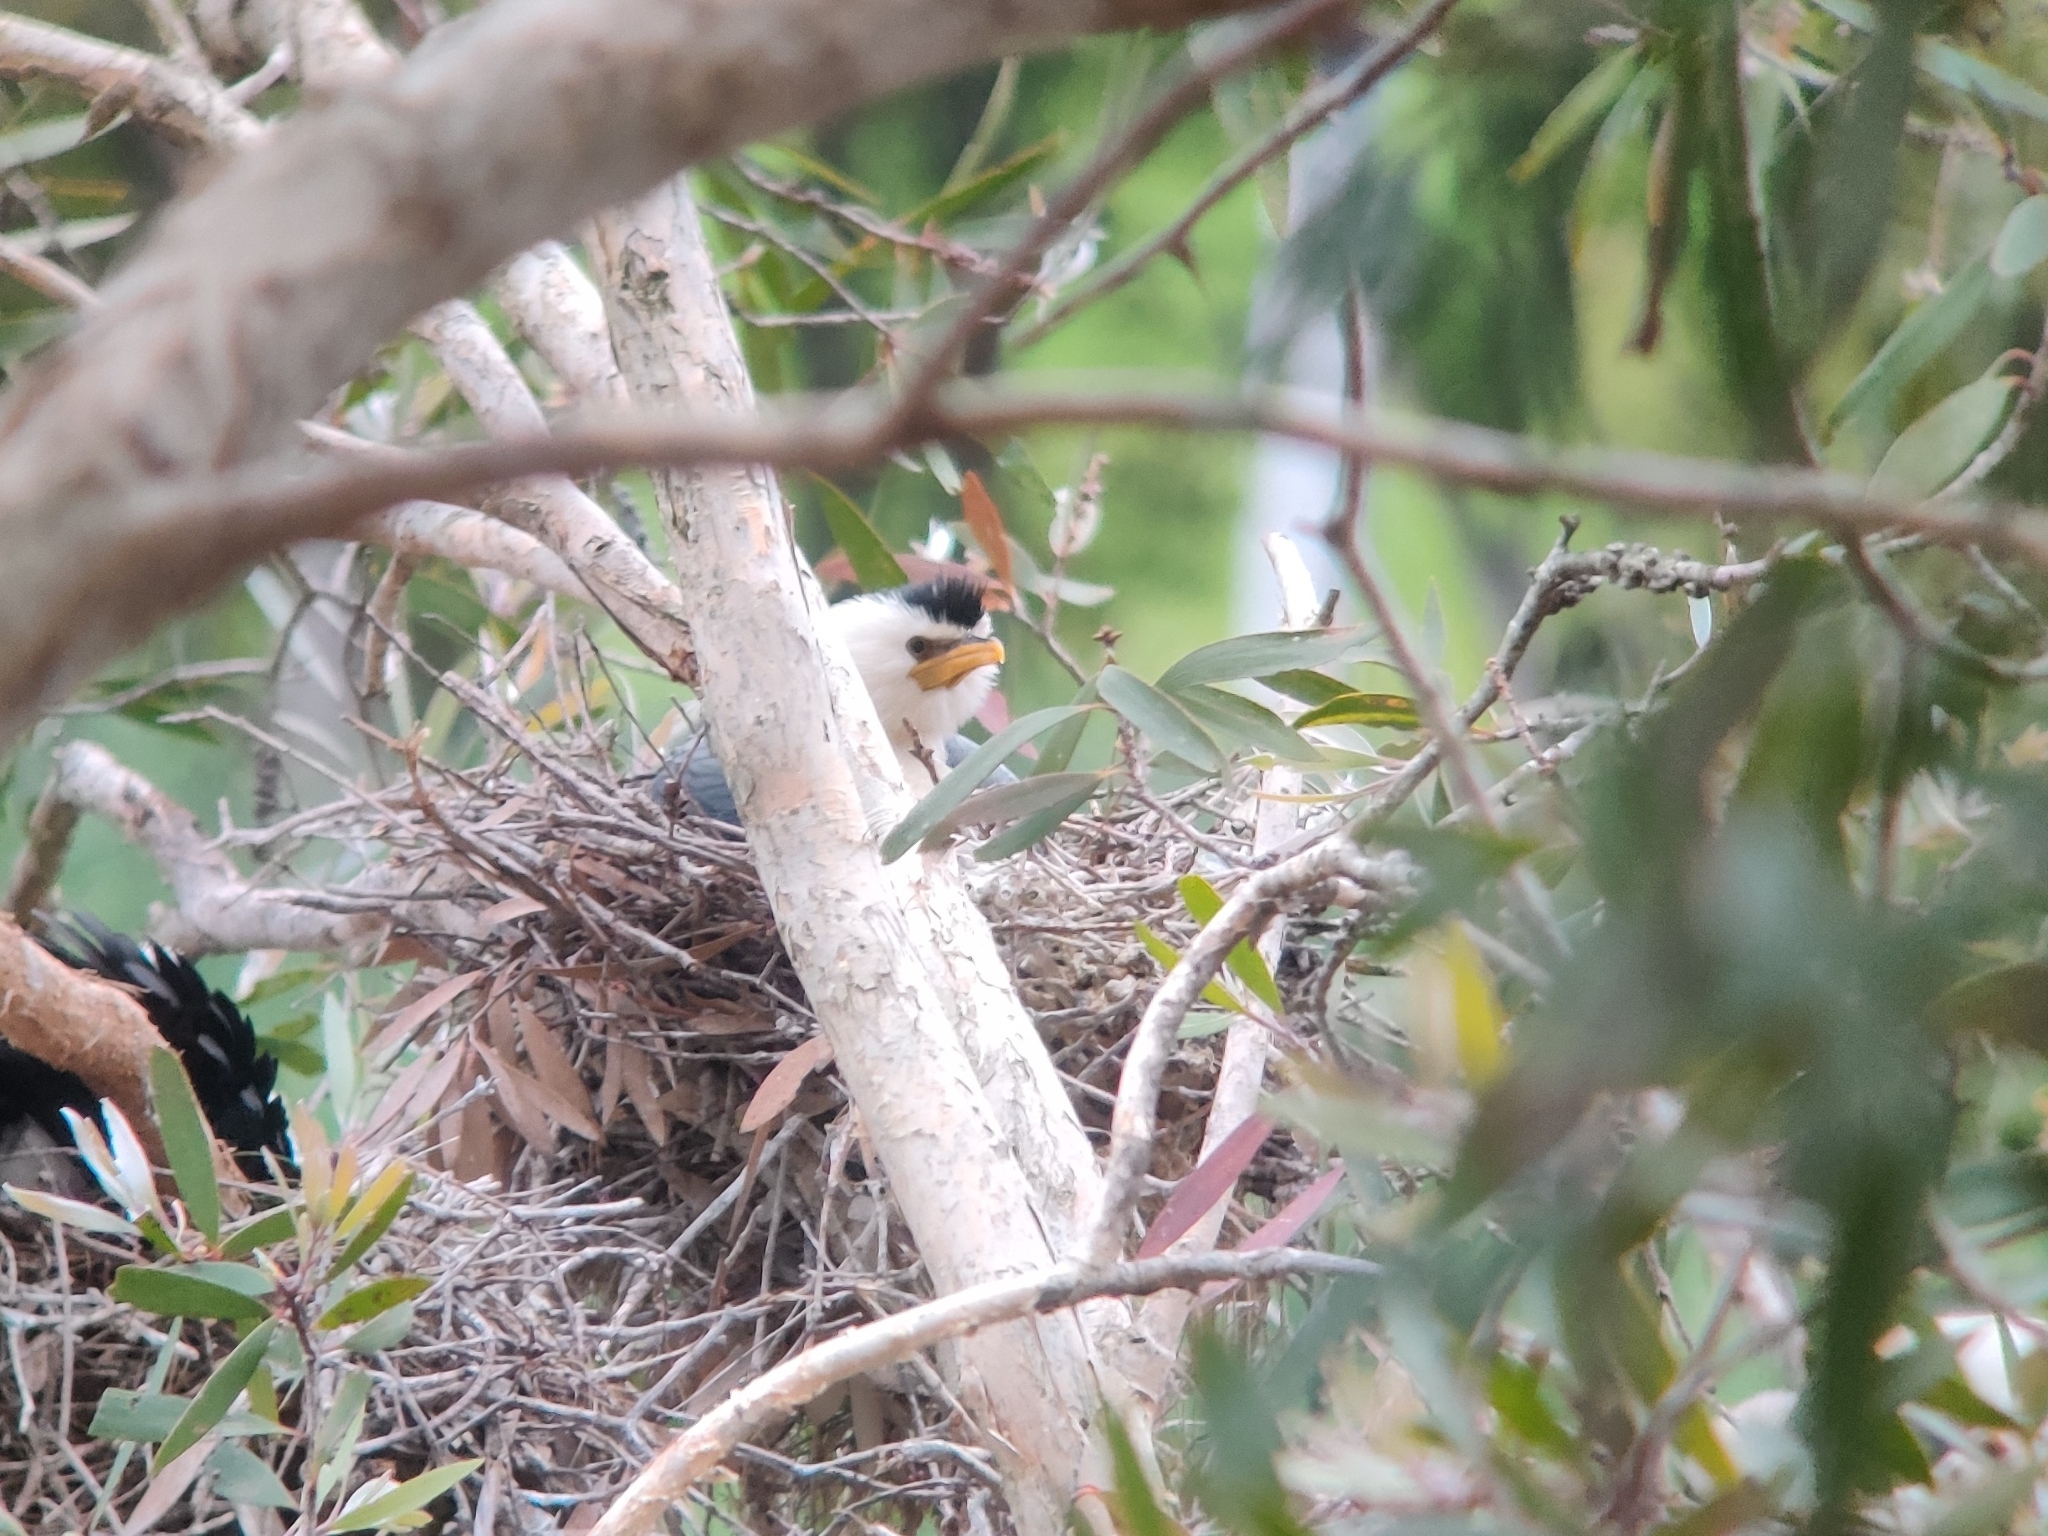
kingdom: Animalia
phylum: Chordata
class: Aves
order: Suliformes
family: Phalacrocoracidae
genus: Microcarbo
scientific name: Microcarbo melanoleucos
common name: Little pied cormorant
